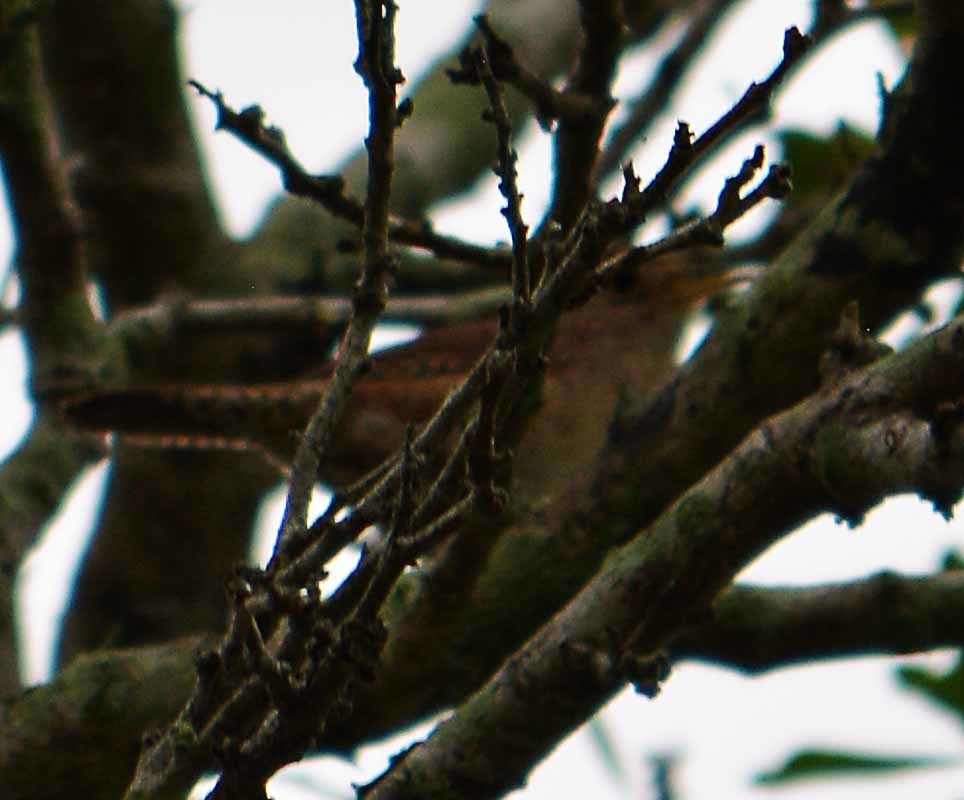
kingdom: Animalia
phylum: Chordata
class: Aves
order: Passeriformes
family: Troglodytidae
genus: Troglodytes
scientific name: Troglodytes aedon
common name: House wren
